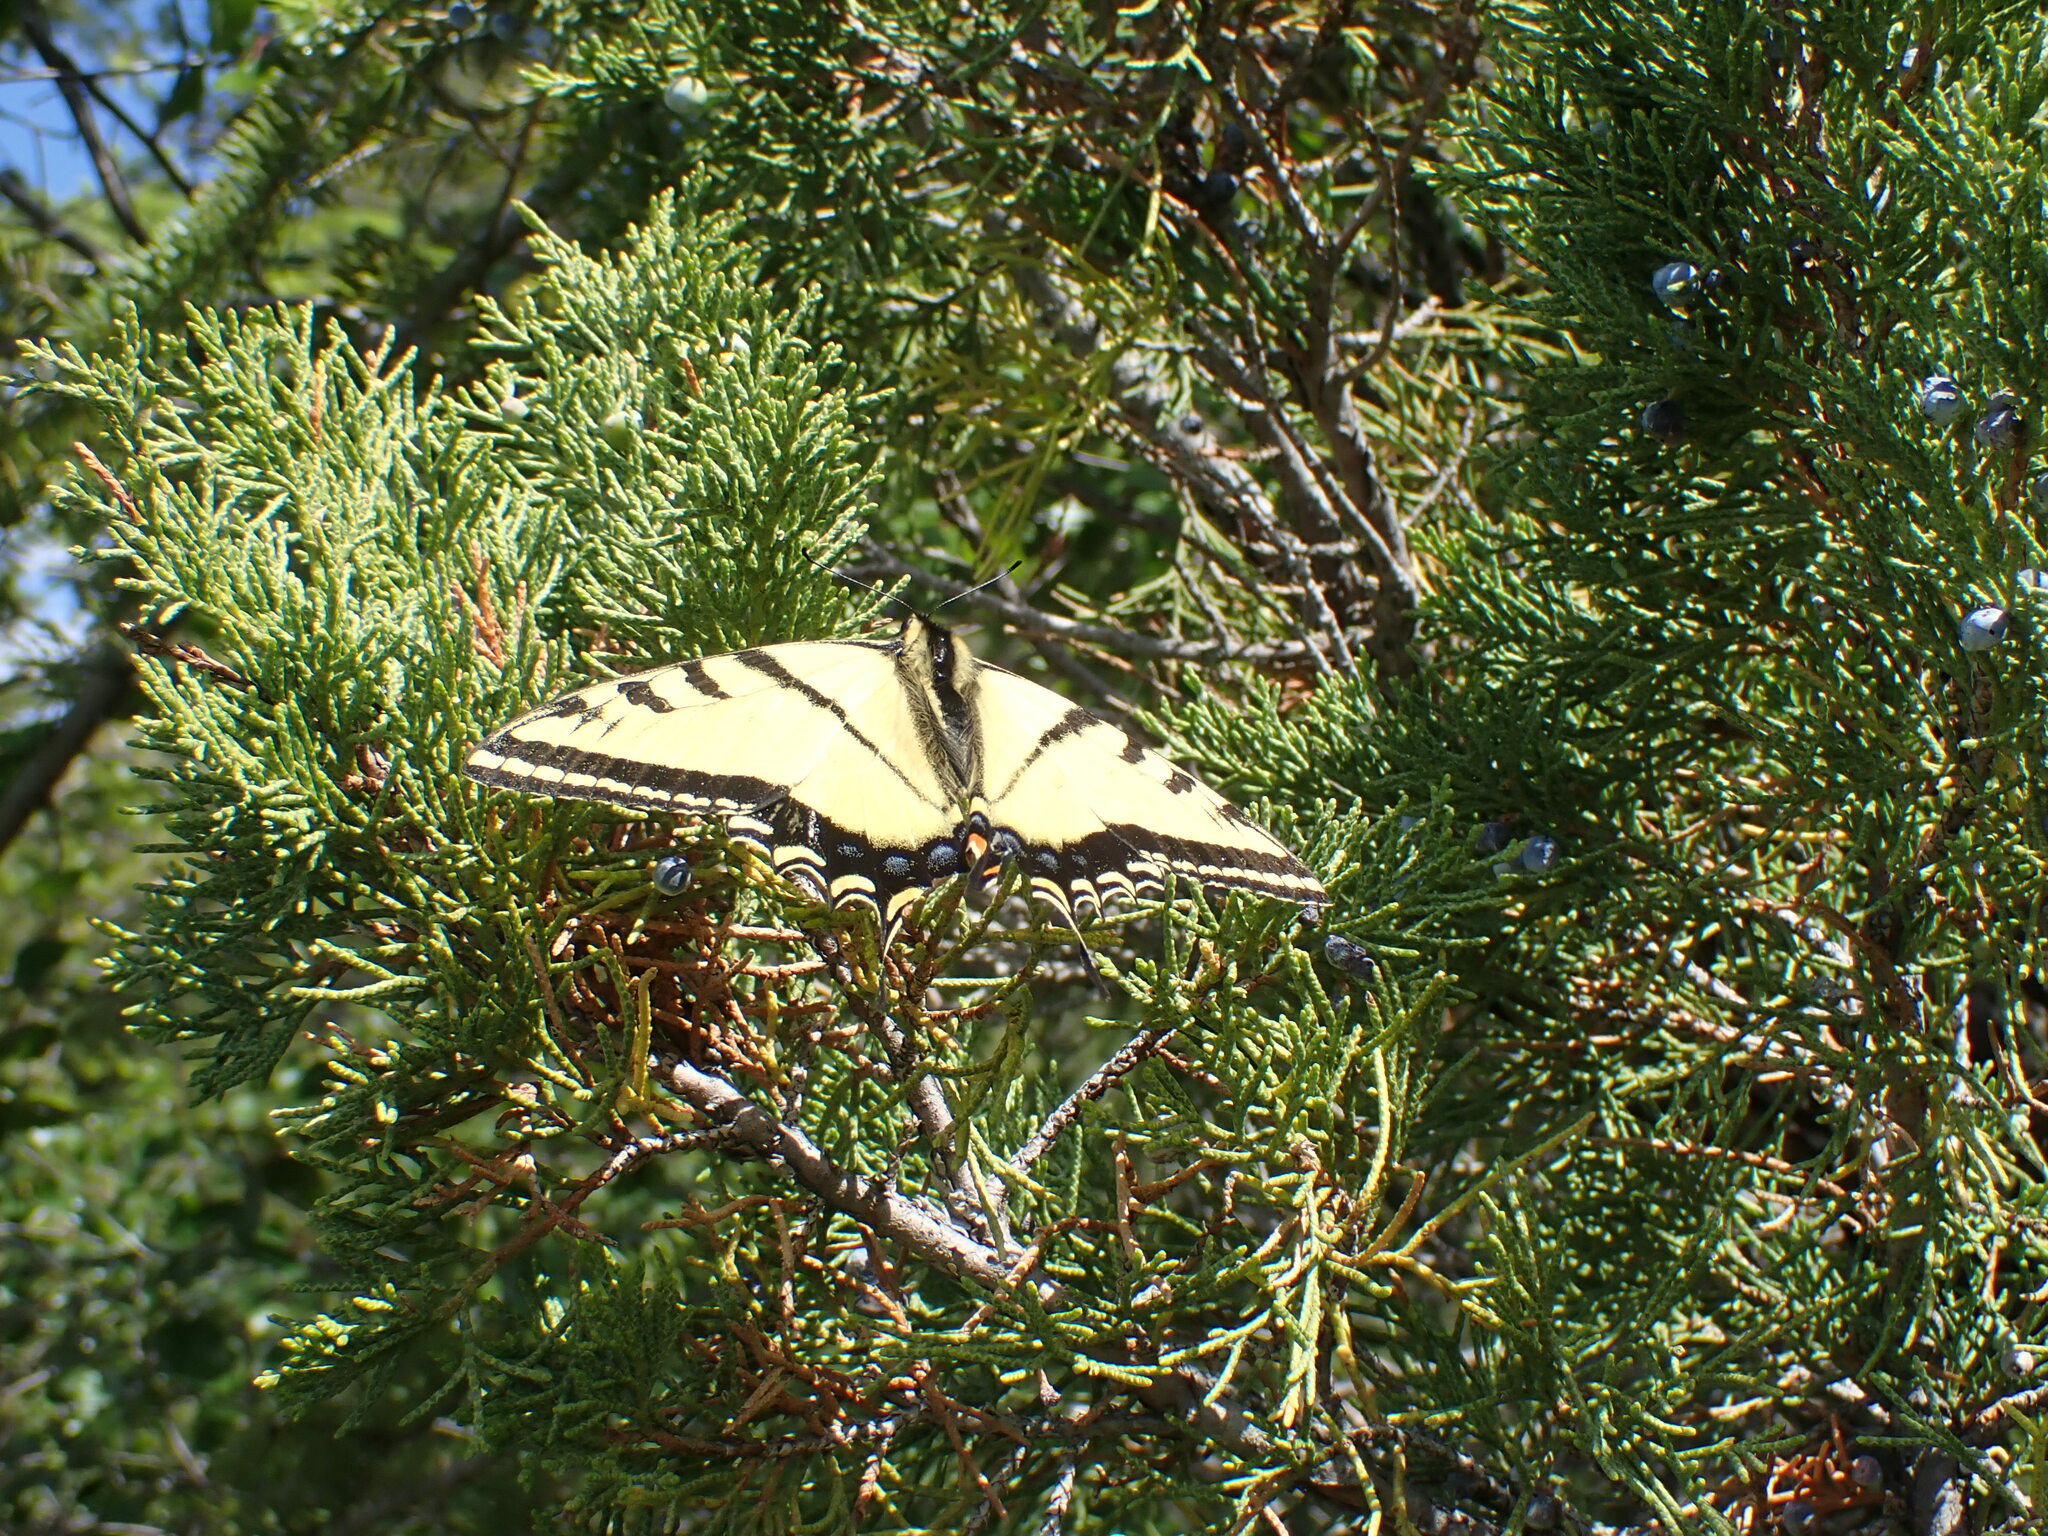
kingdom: Animalia
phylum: Arthropoda
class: Insecta
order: Lepidoptera
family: Papilionidae
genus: Papilio
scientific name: Papilio multicaudata
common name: Two-tailed tiger swallowtail
